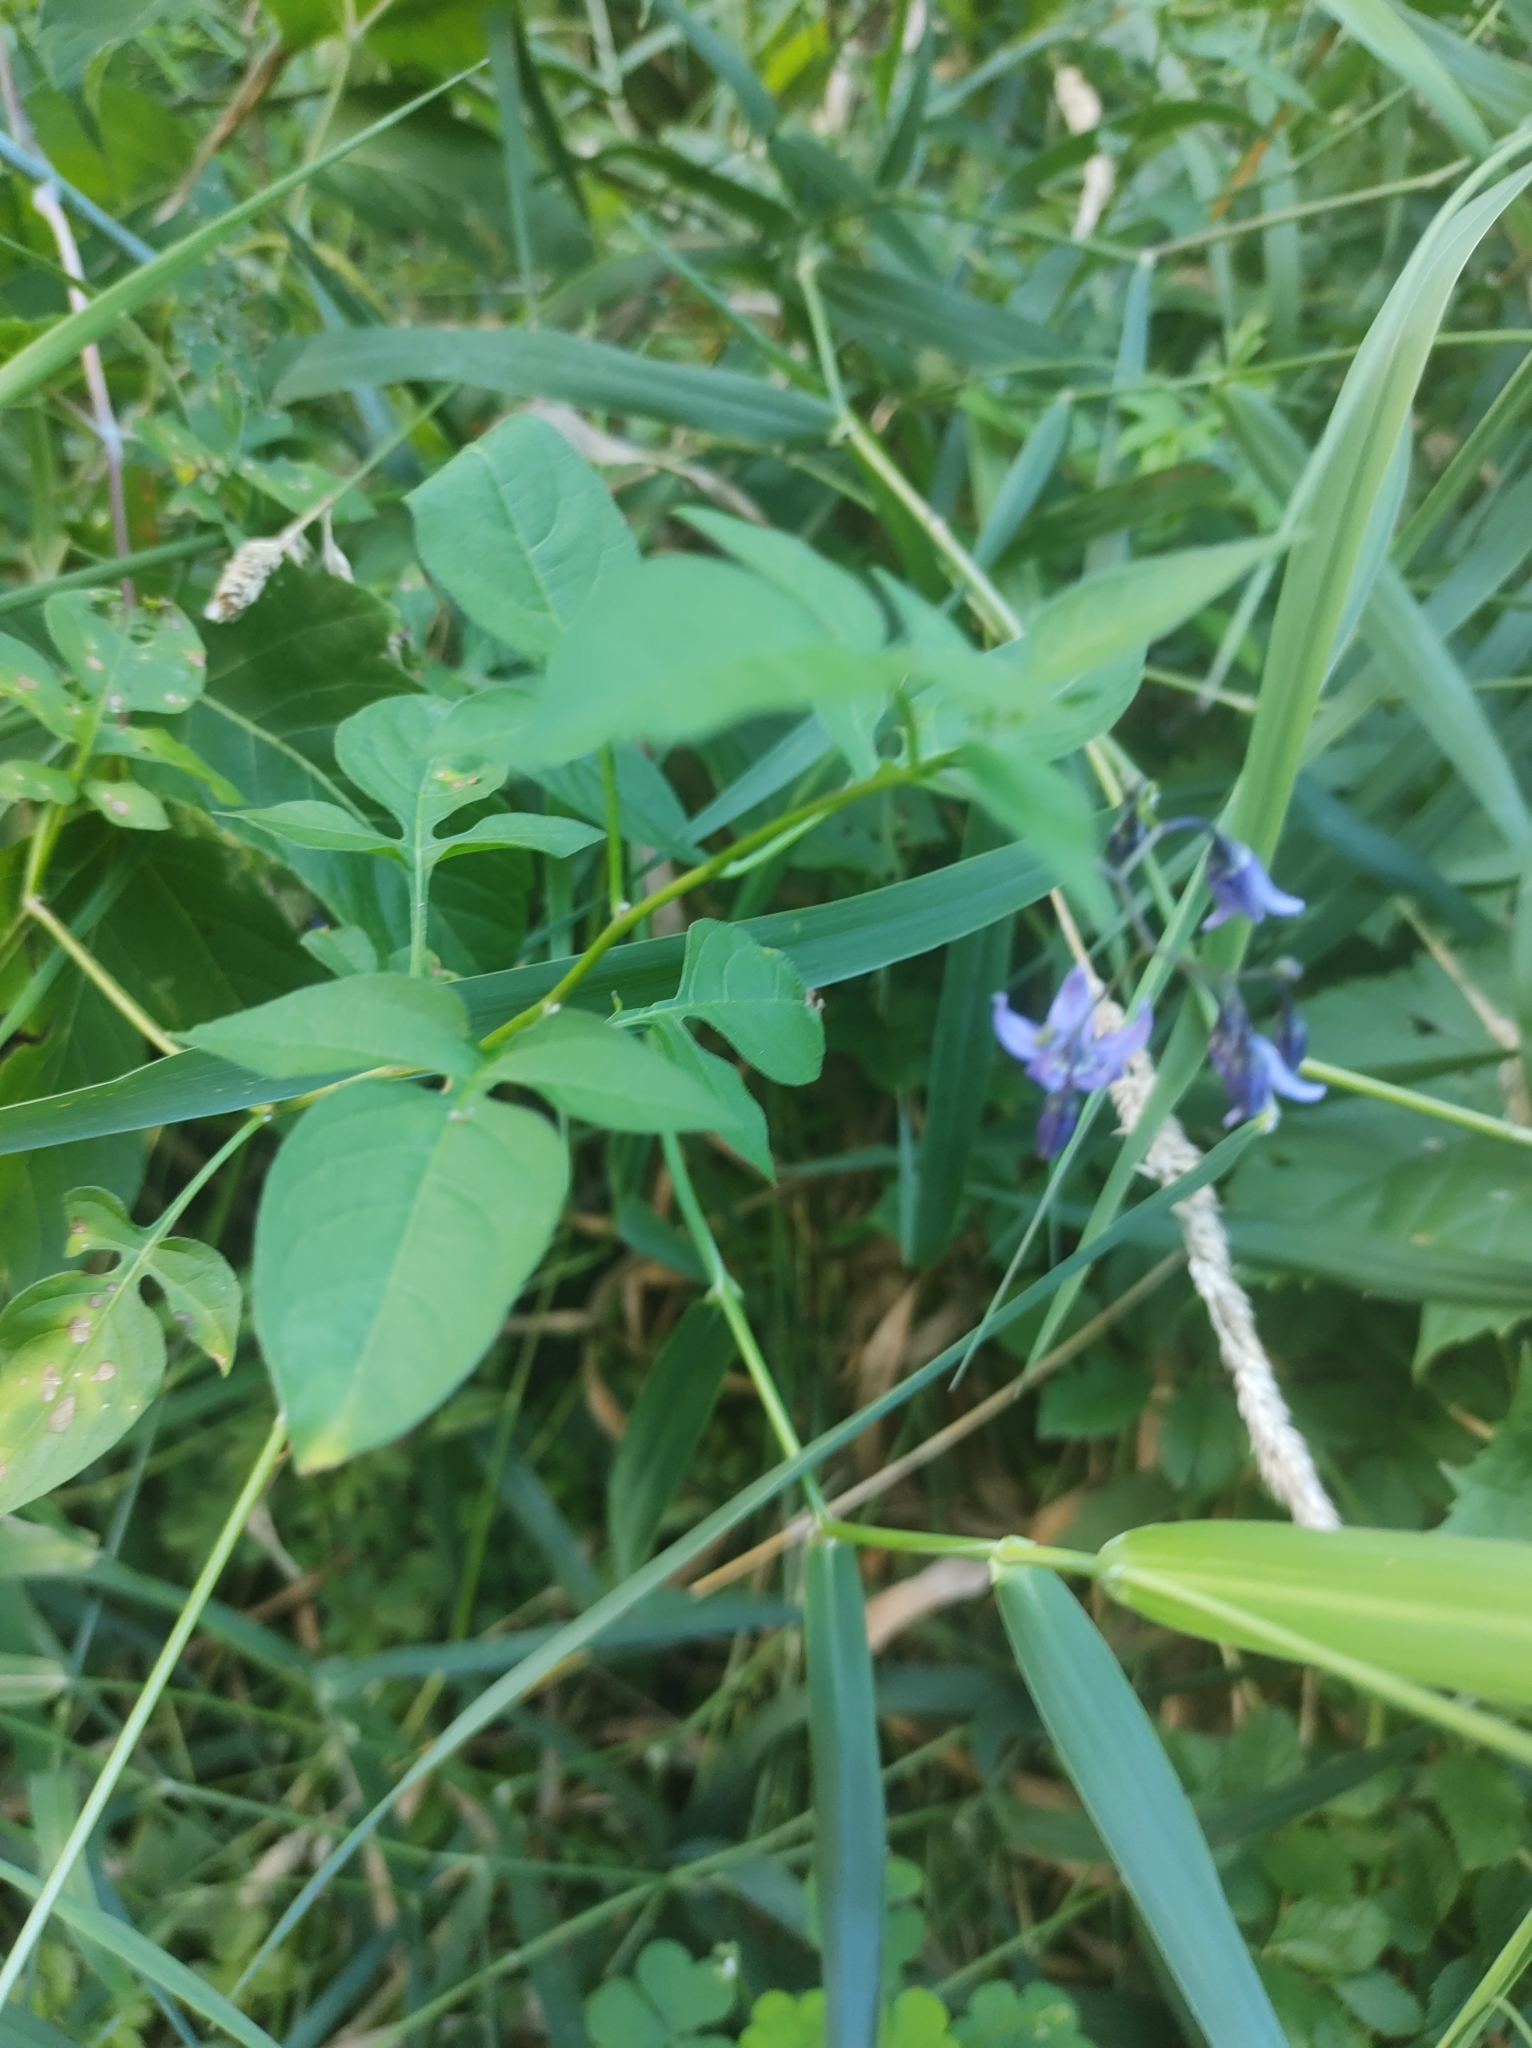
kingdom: Plantae
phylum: Tracheophyta
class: Magnoliopsida
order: Solanales
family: Solanaceae
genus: Solanum
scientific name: Solanum dulcamara
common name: Climbing nightshade
